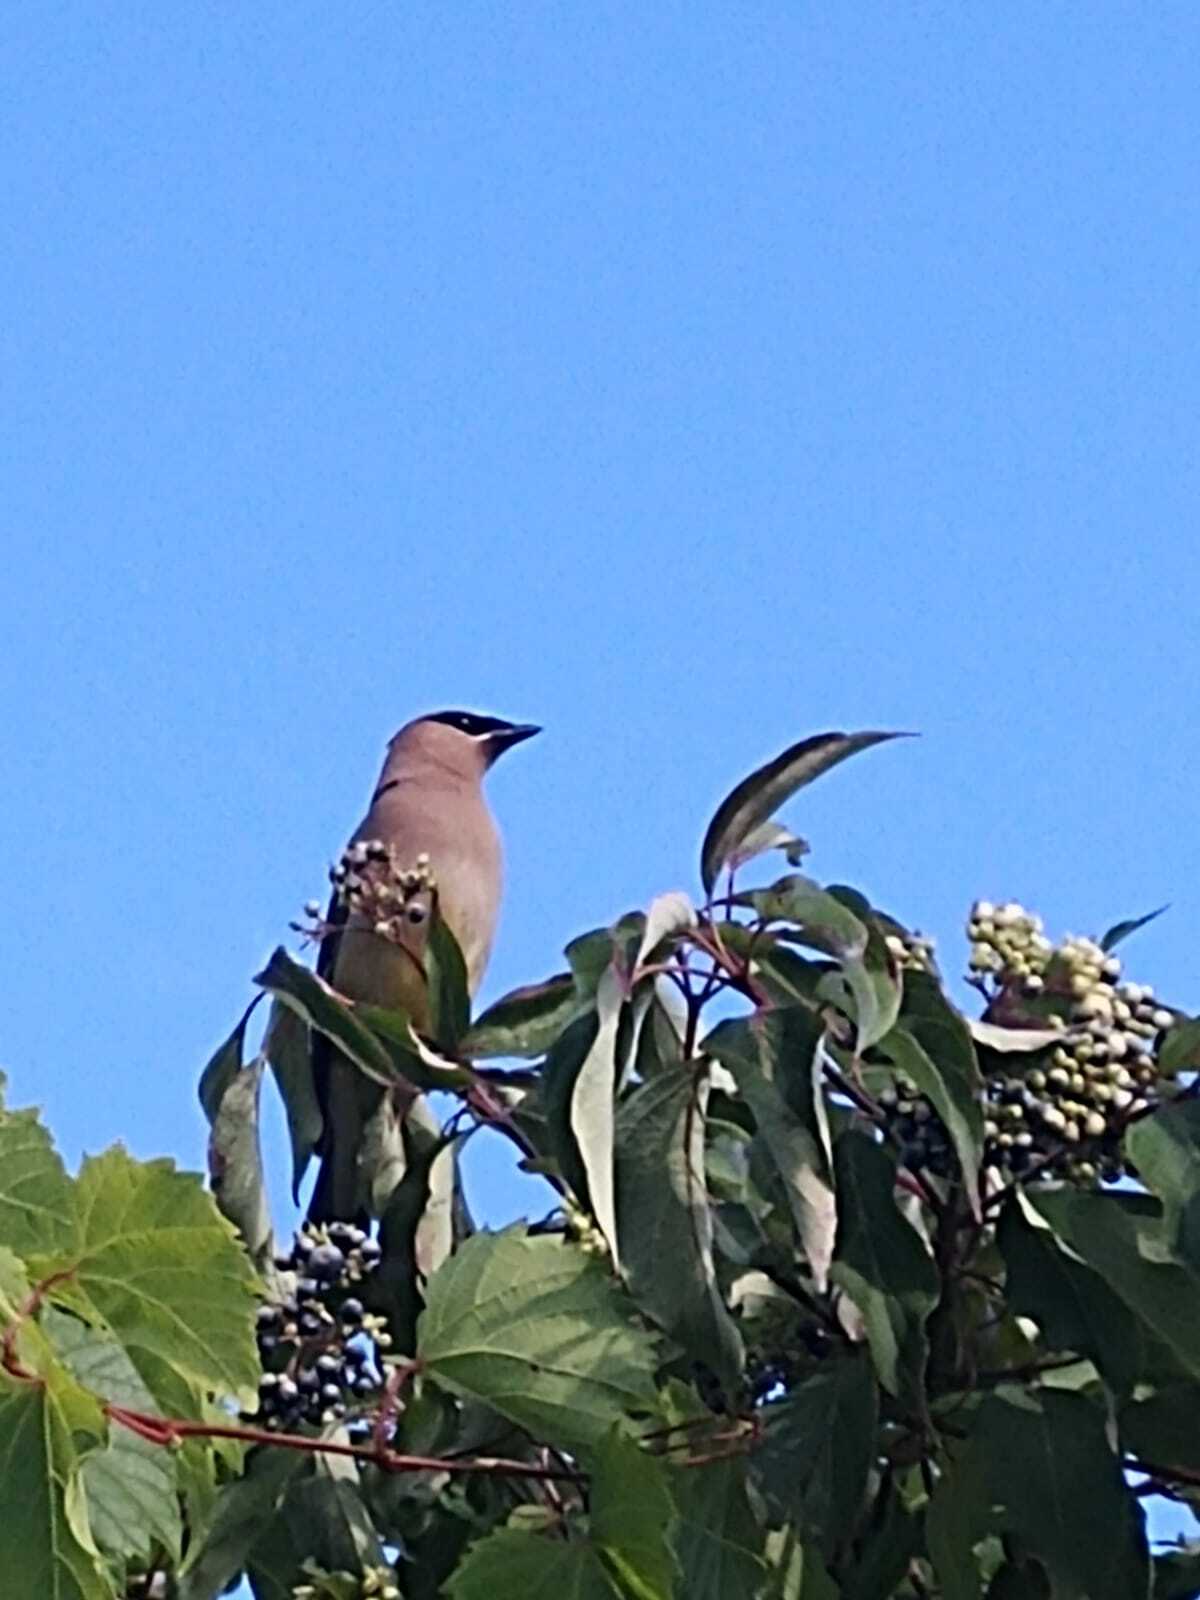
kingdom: Animalia
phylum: Chordata
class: Aves
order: Passeriformes
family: Bombycillidae
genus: Bombycilla
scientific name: Bombycilla cedrorum
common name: Cedar waxwing
